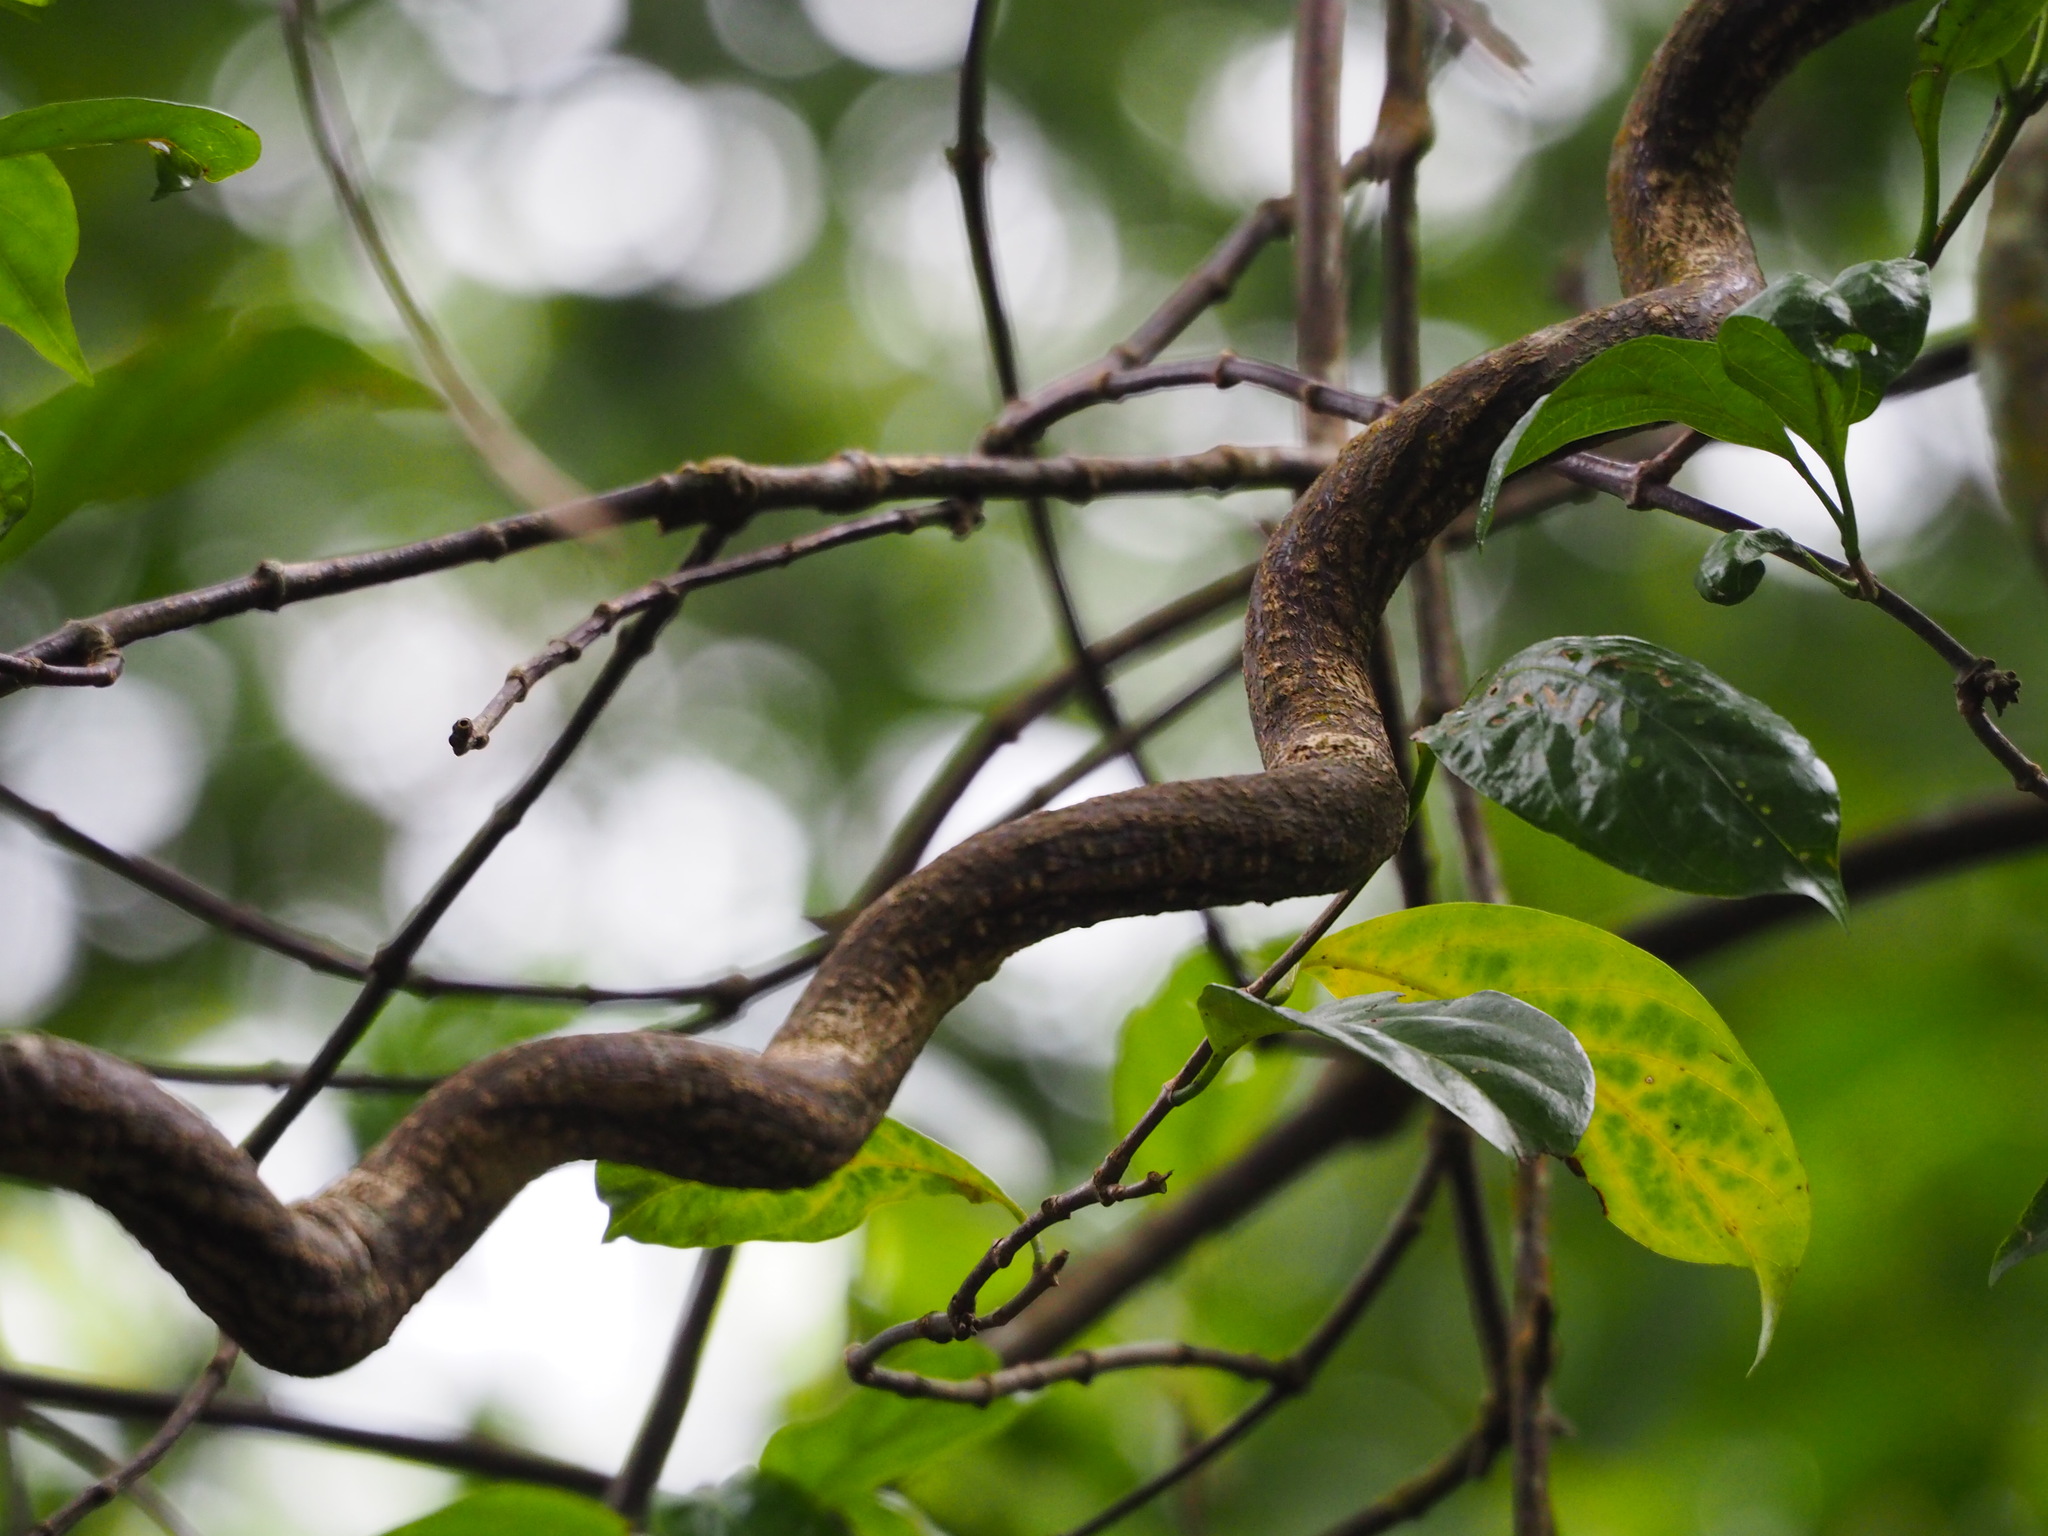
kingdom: Plantae
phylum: Tracheophyta
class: Magnoliopsida
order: Sapindales
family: Rutaceae
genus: Zanthoxylum
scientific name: Zanthoxylum scandens
